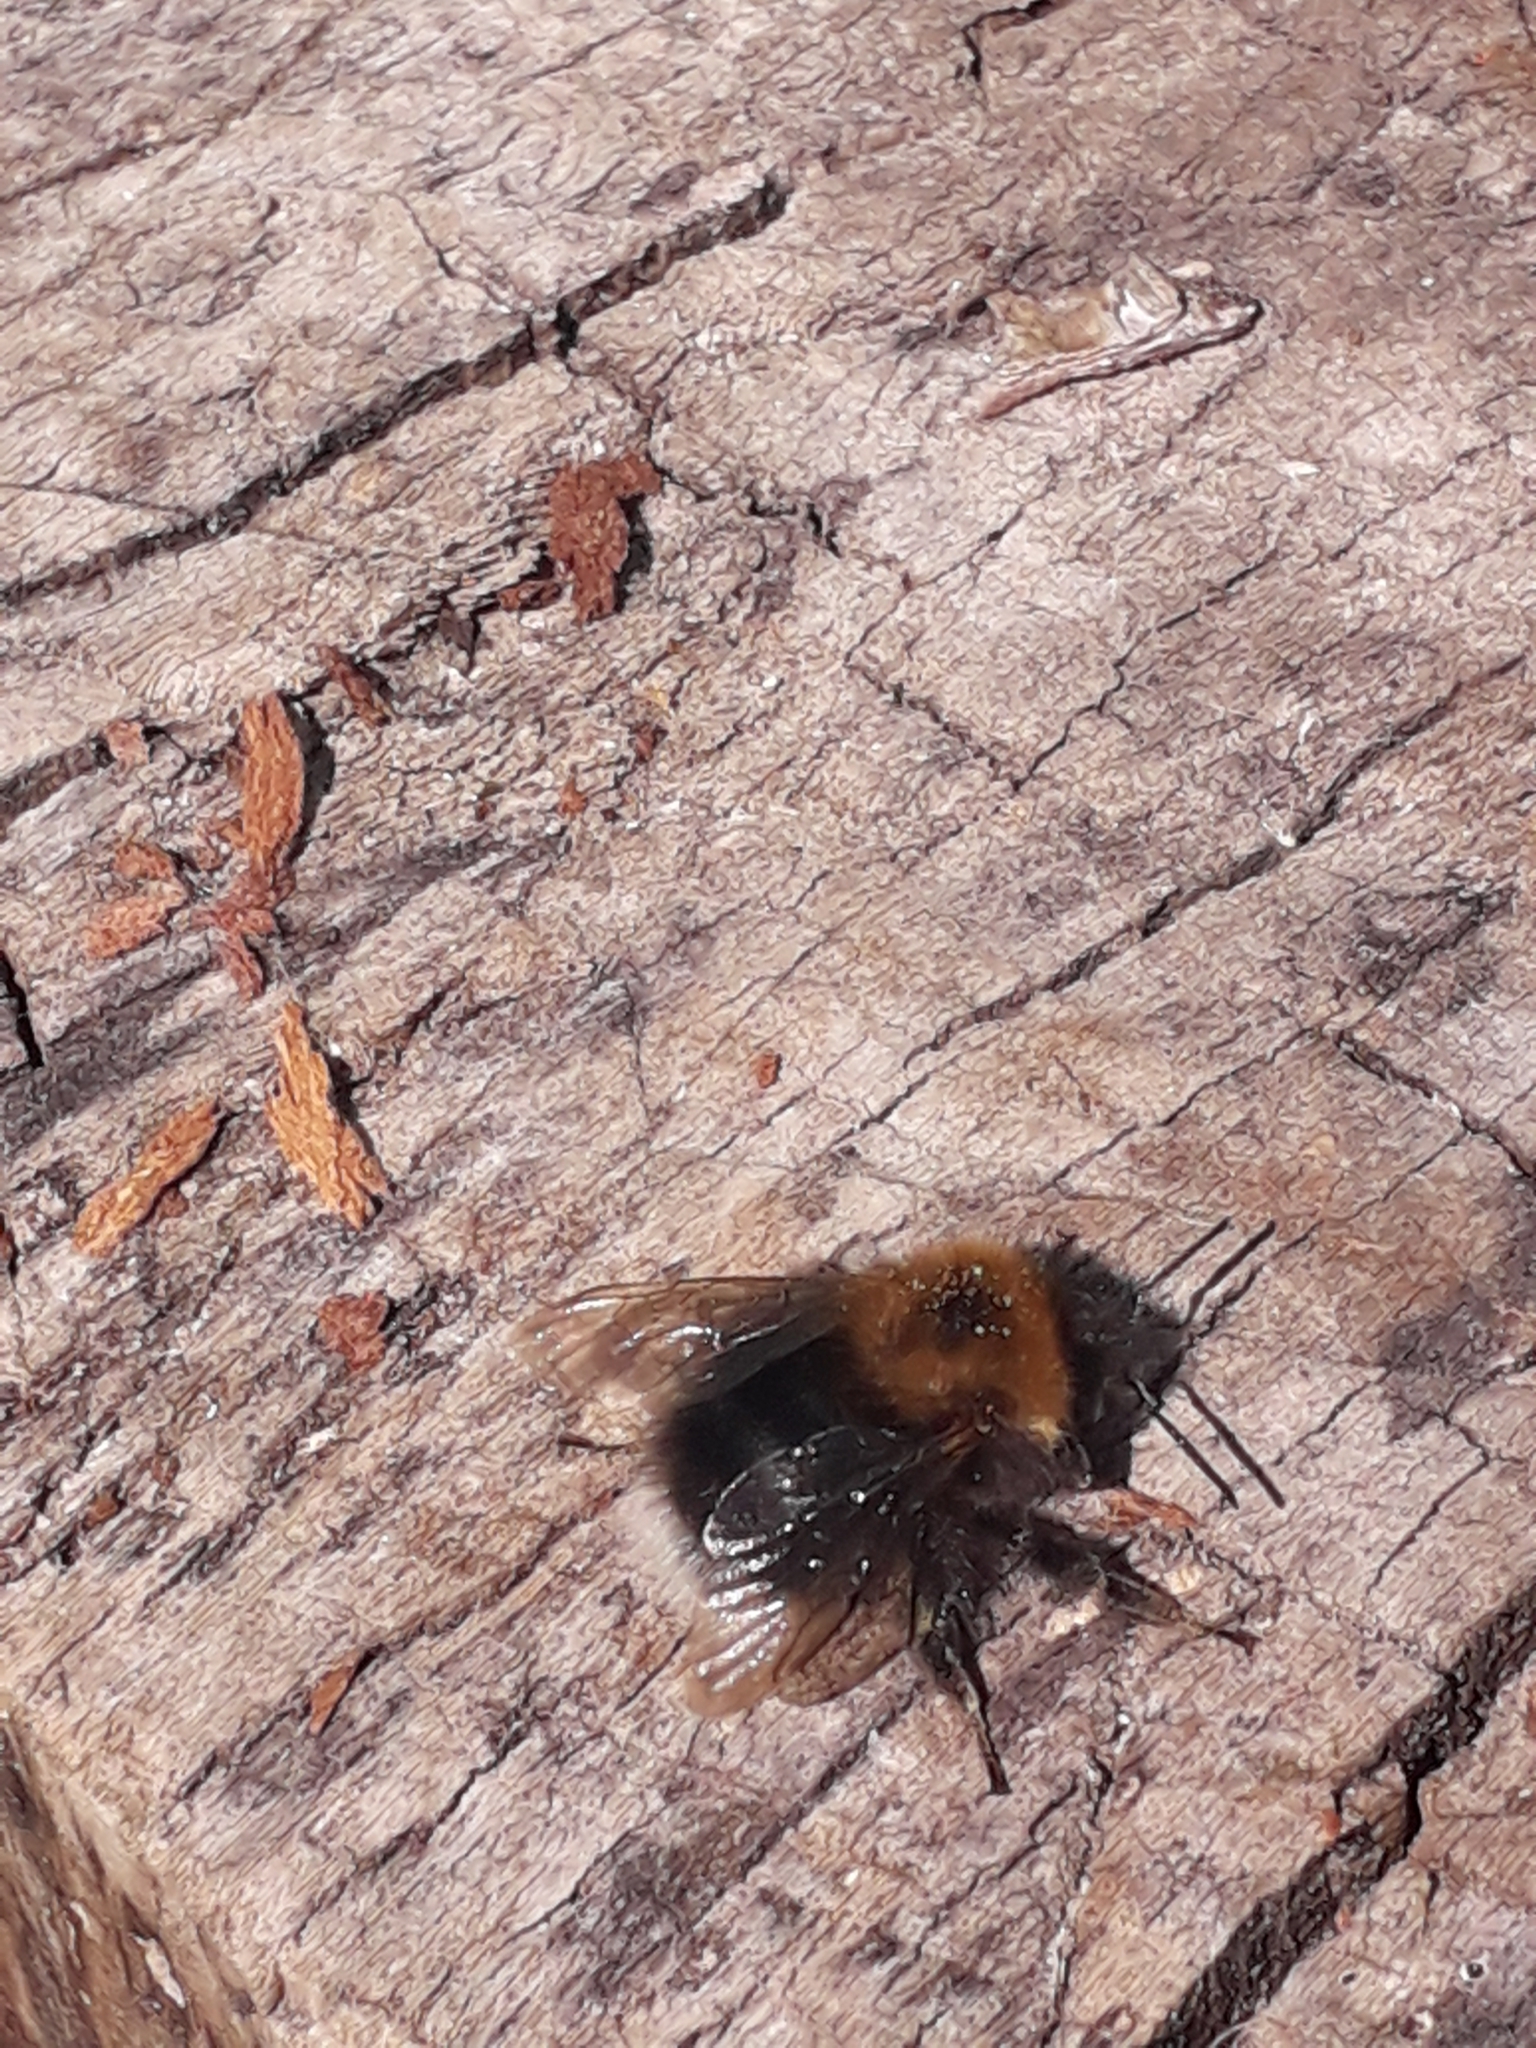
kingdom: Animalia
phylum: Arthropoda
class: Insecta
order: Hymenoptera
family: Apidae
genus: Bombus
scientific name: Bombus hypnorum
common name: New garden bumblebee
